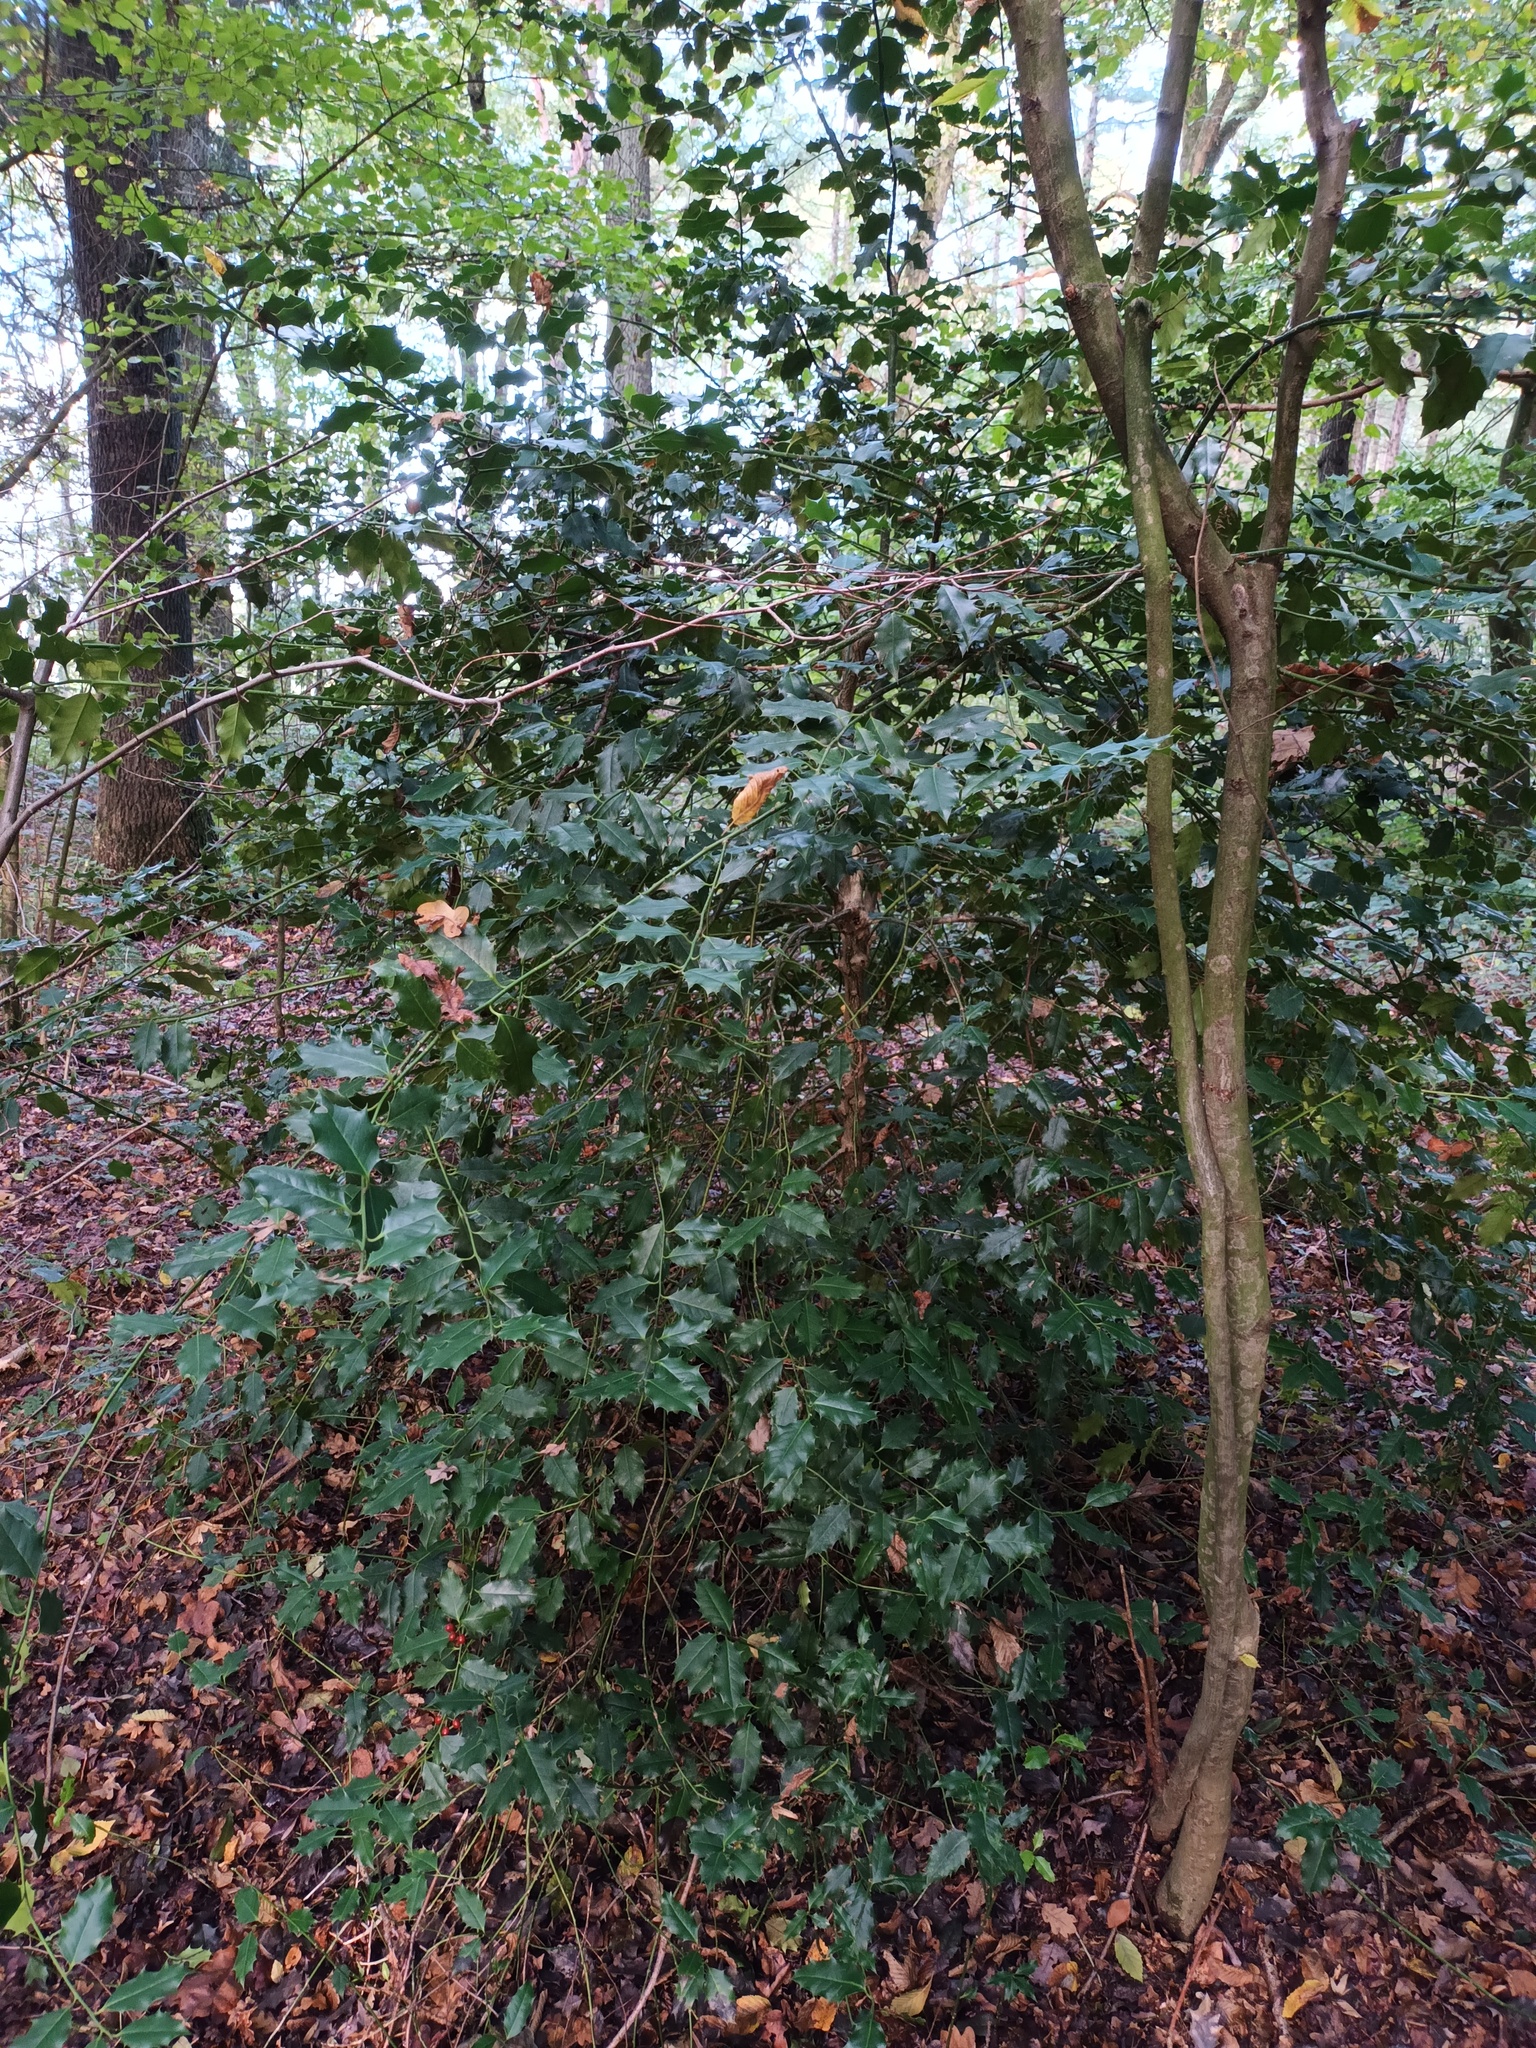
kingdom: Plantae
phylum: Tracheophyta
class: Magnoliopsida
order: Aquifoliales
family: Aquifoliaceae
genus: Ilex
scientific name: Ilex aquifolium
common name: English holly
